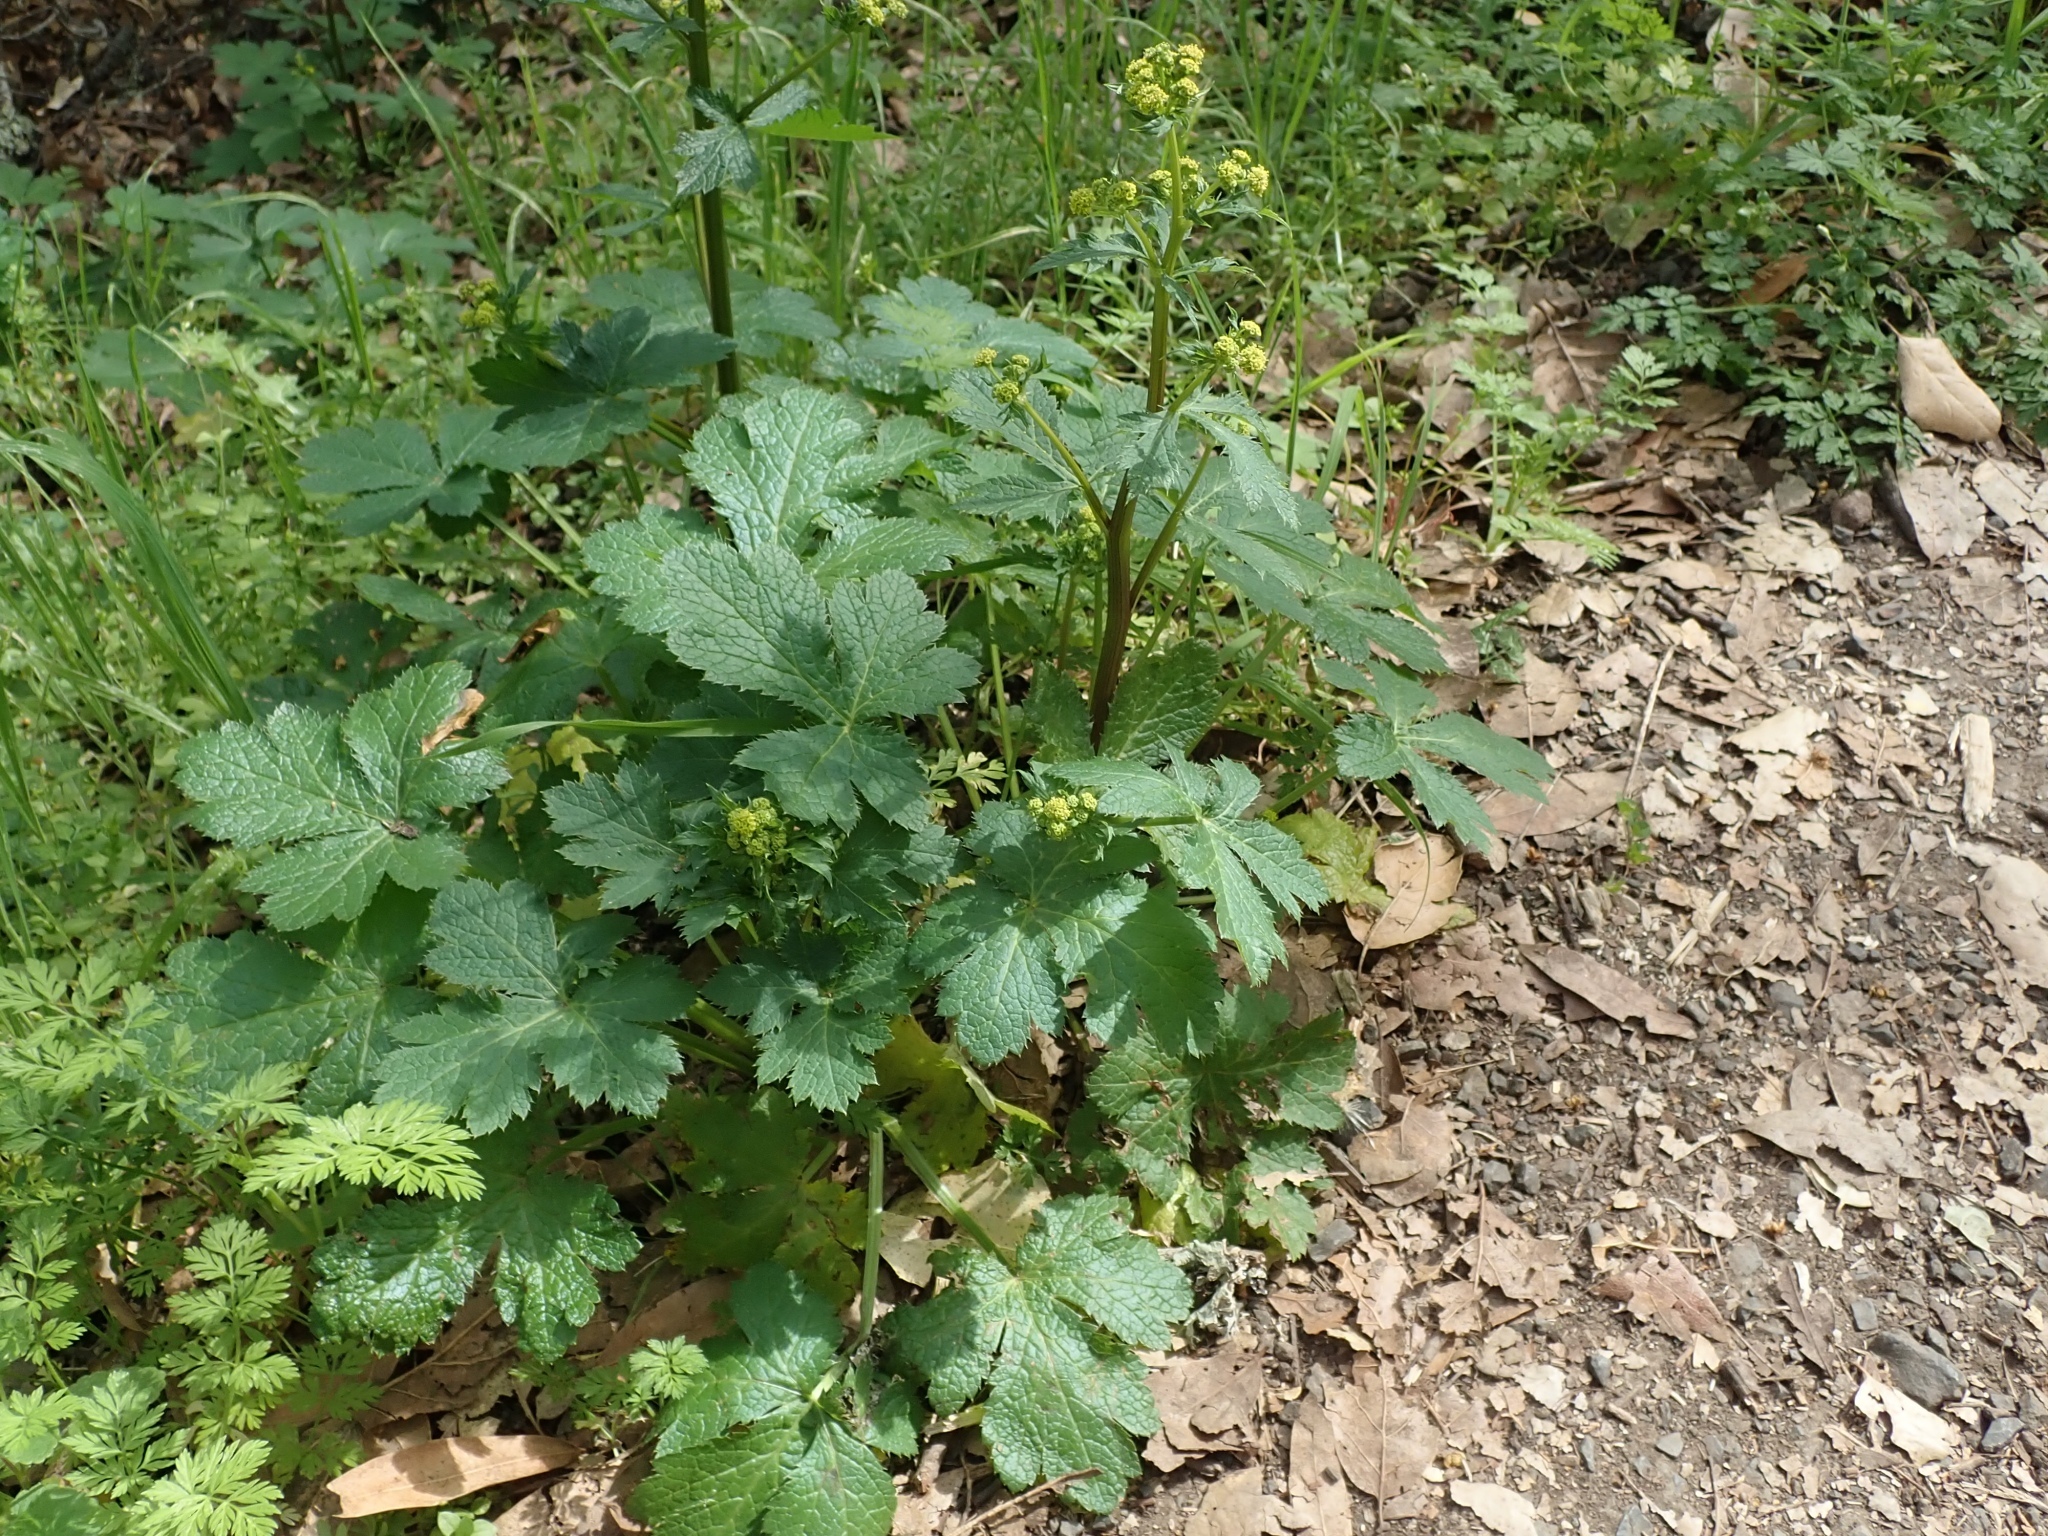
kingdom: Plantae
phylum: Tracheophyta
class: Magnoliopsida
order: Apiales
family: Apiaceae
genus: Sanicula
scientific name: Sanicula crassicaulis
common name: Western snakeroot
